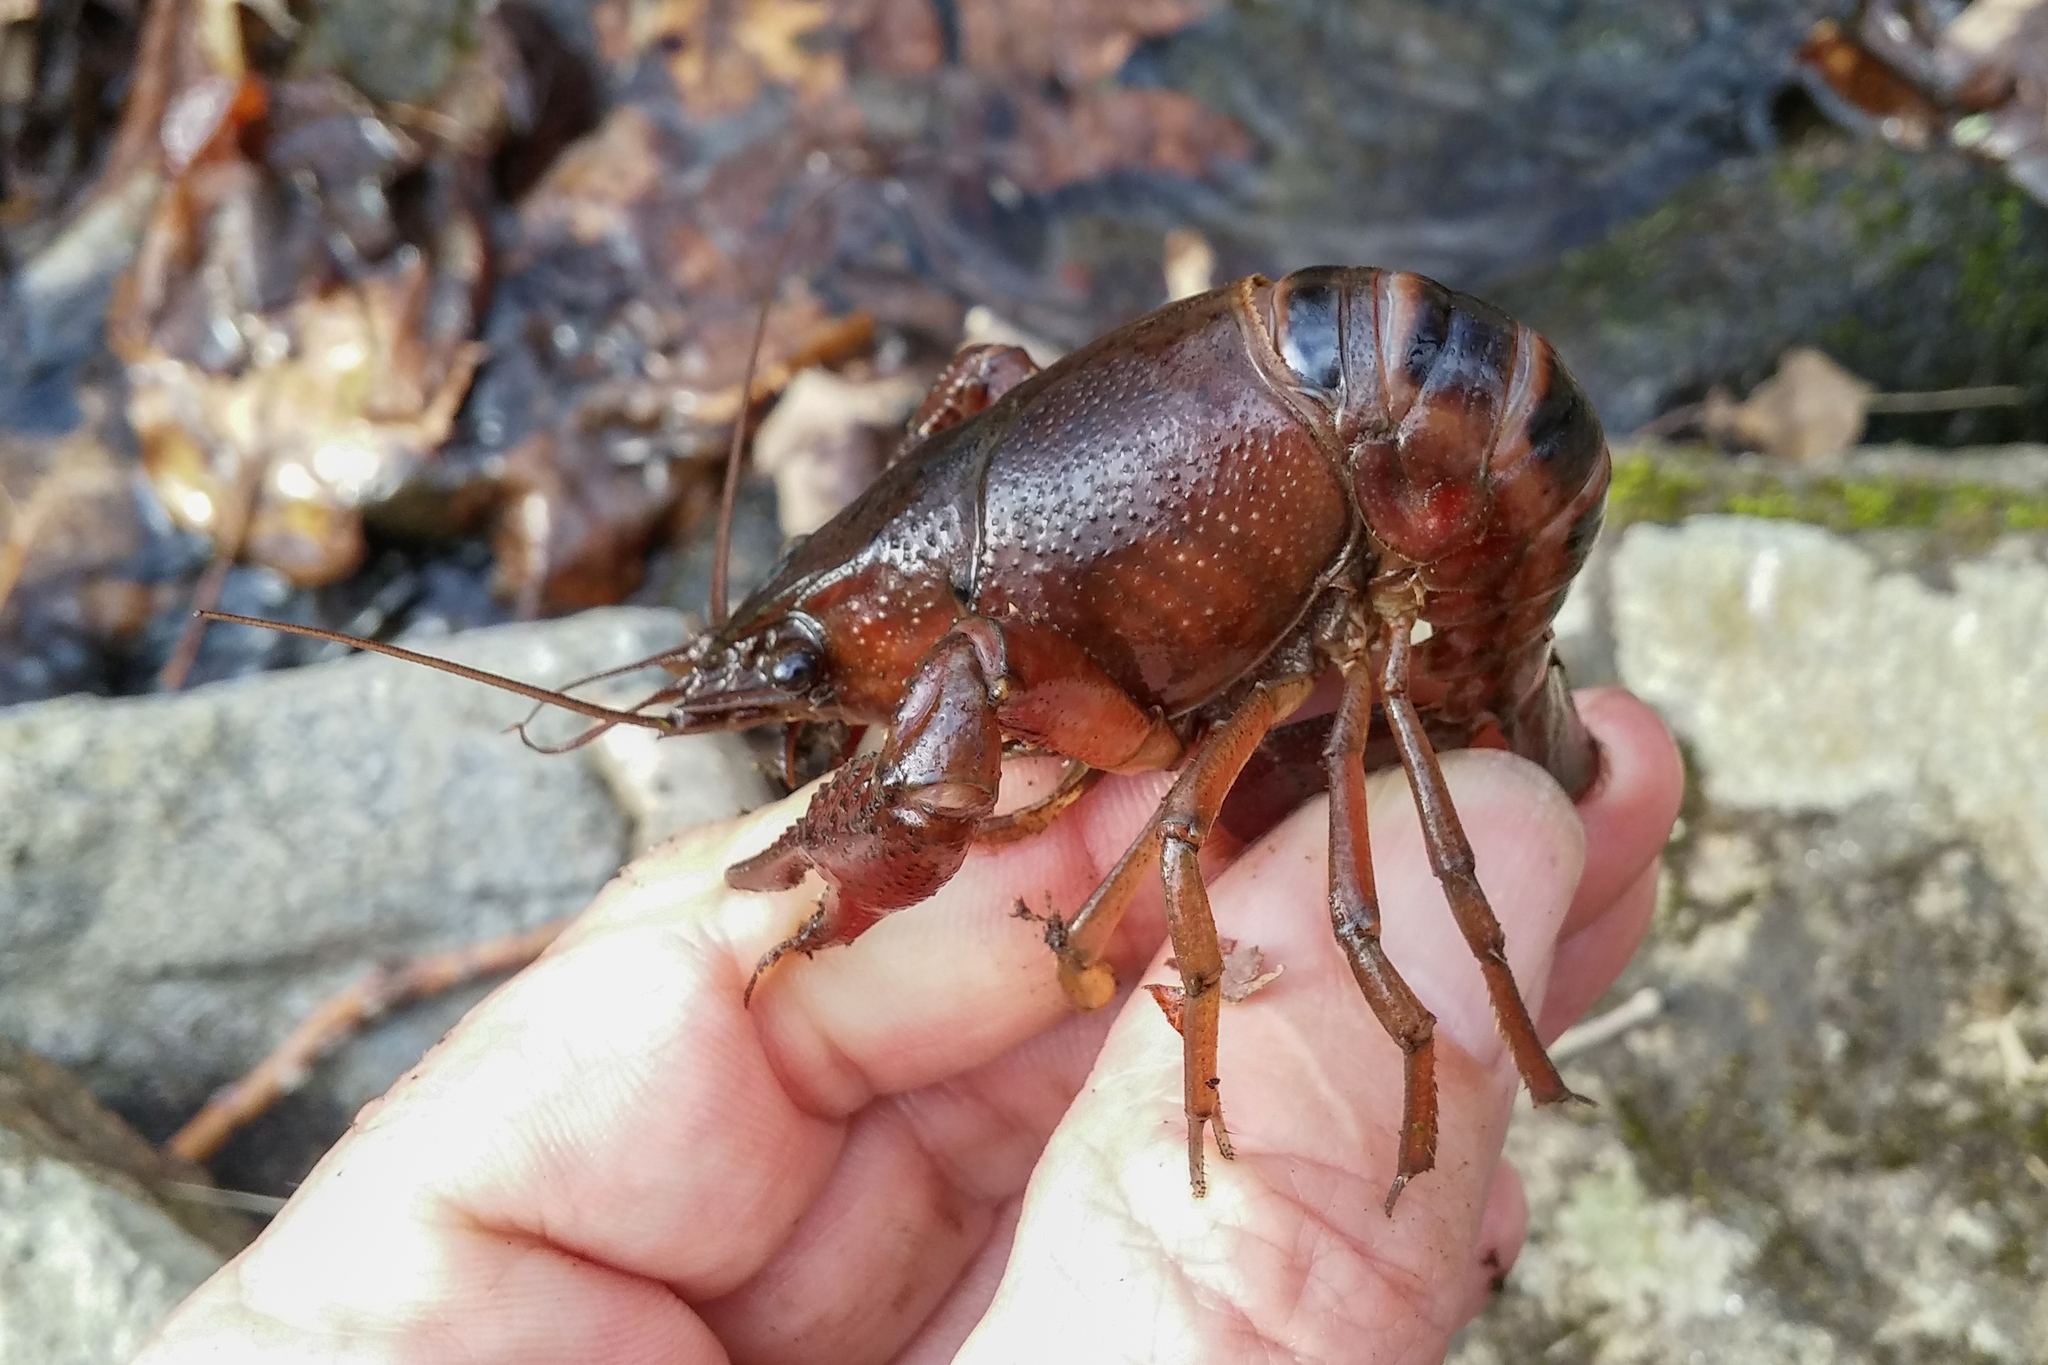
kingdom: Animalia
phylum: Arthropoda
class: Malacostraca
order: Decapoda
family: Cambaridae
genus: Procambarus
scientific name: Procambarus acutus
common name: White river crayfish
